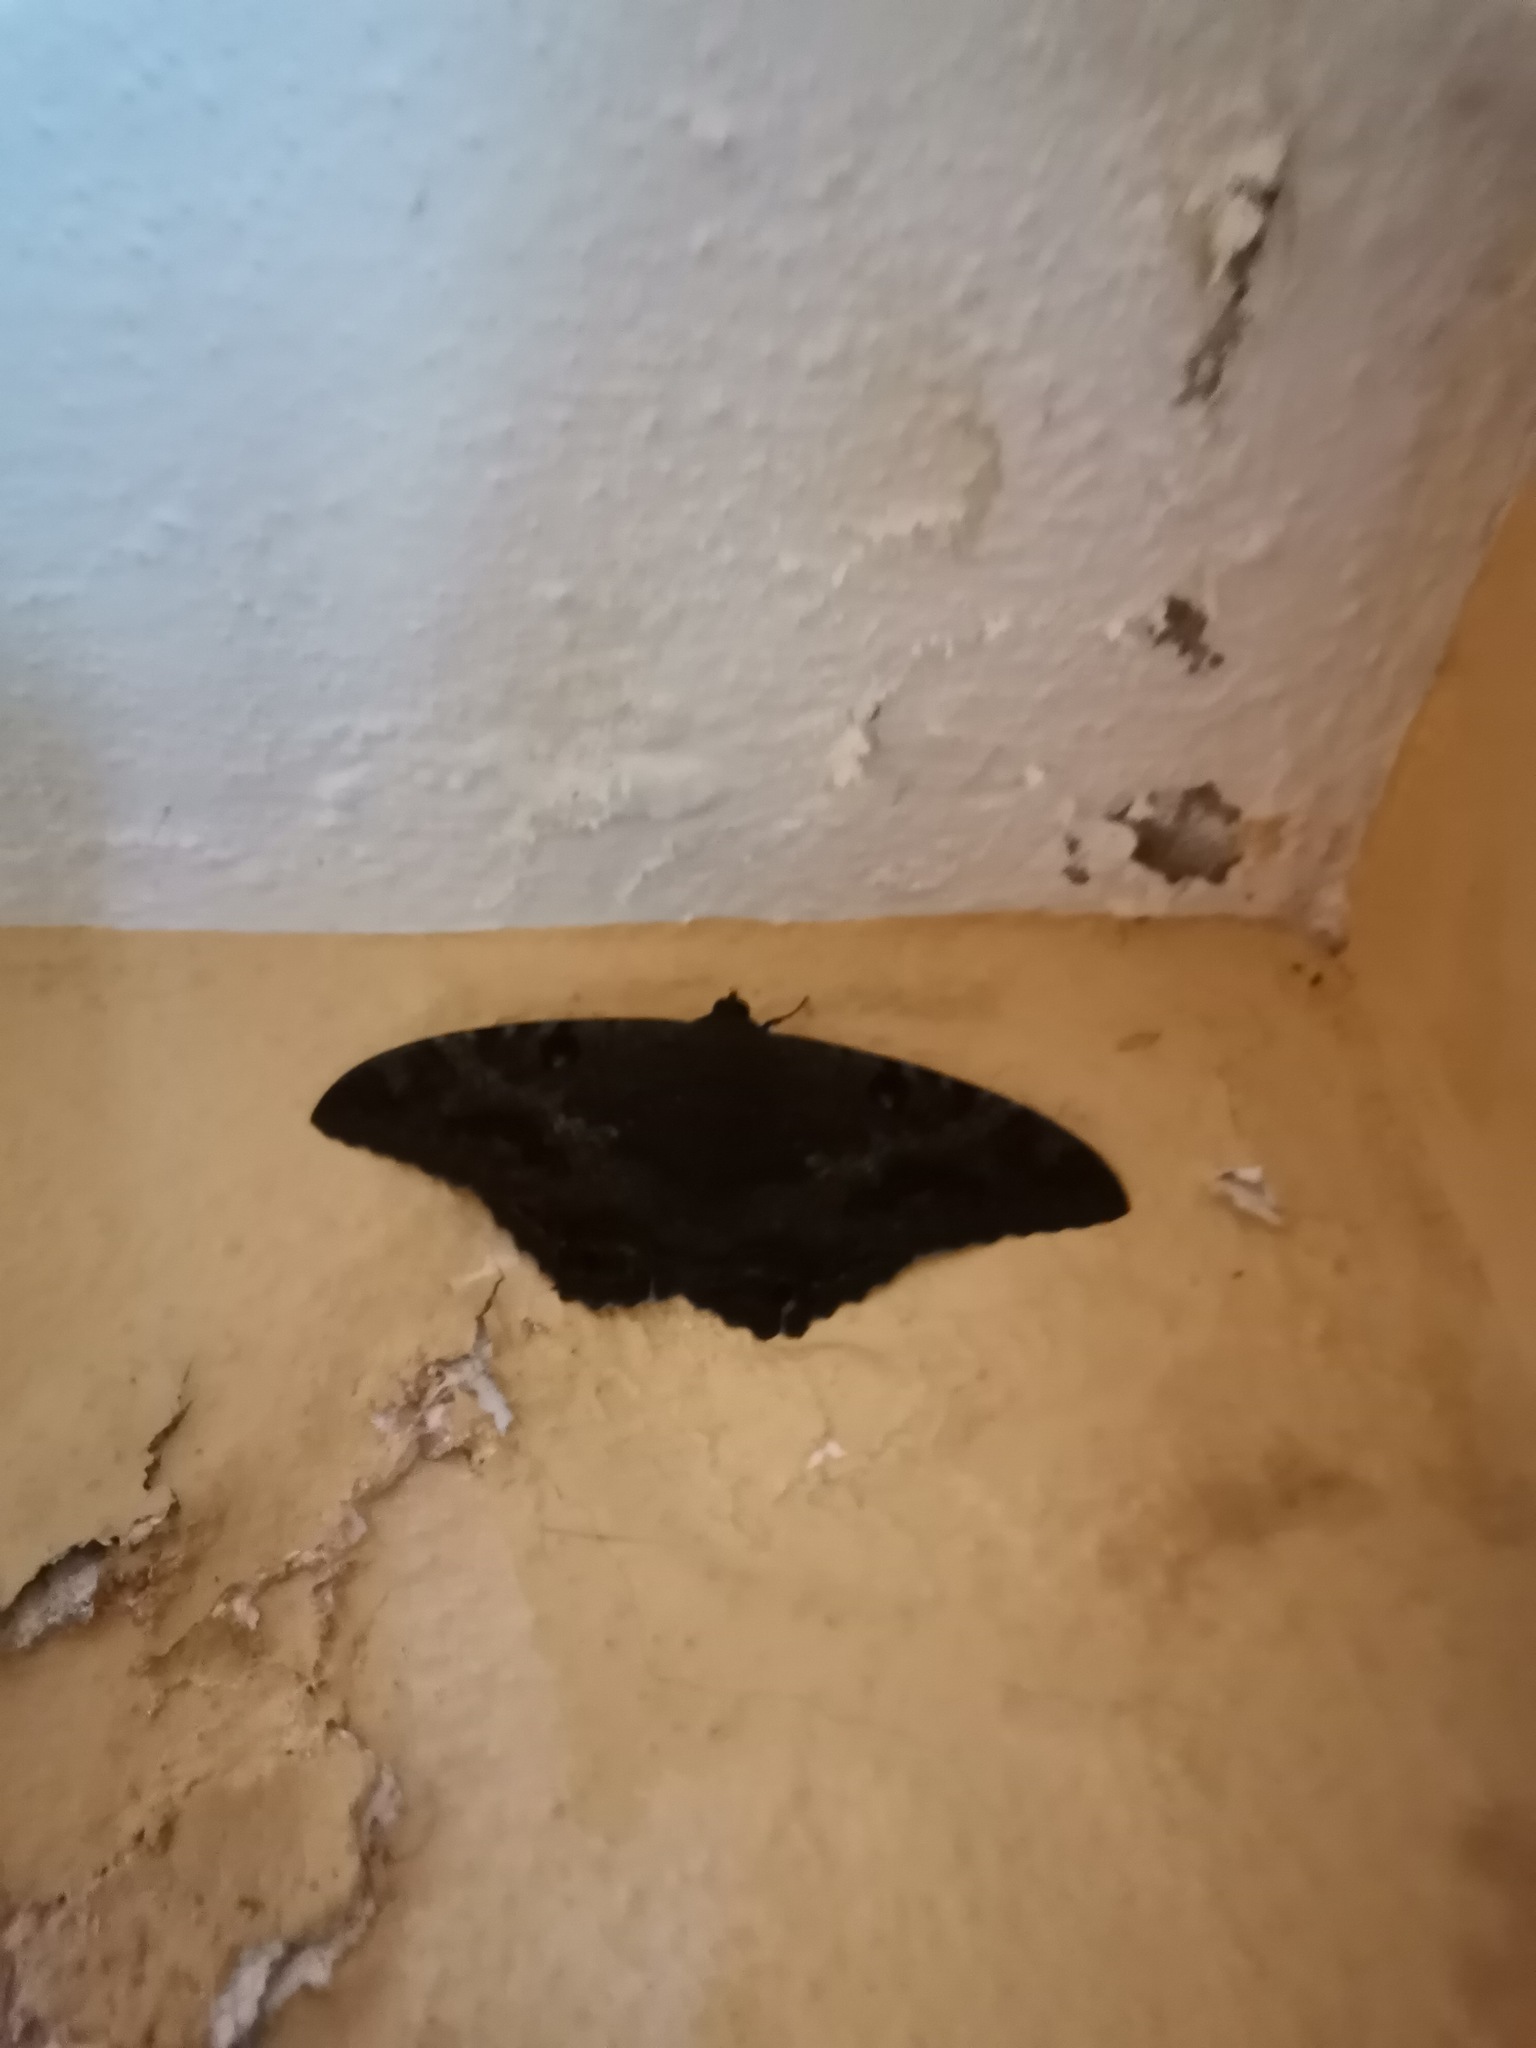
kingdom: Animalia
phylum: Arthropoda
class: Insecta
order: Lepidoptera
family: Erebidae
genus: Ascalapha
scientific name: Ascalapha odorata
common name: Black witch
